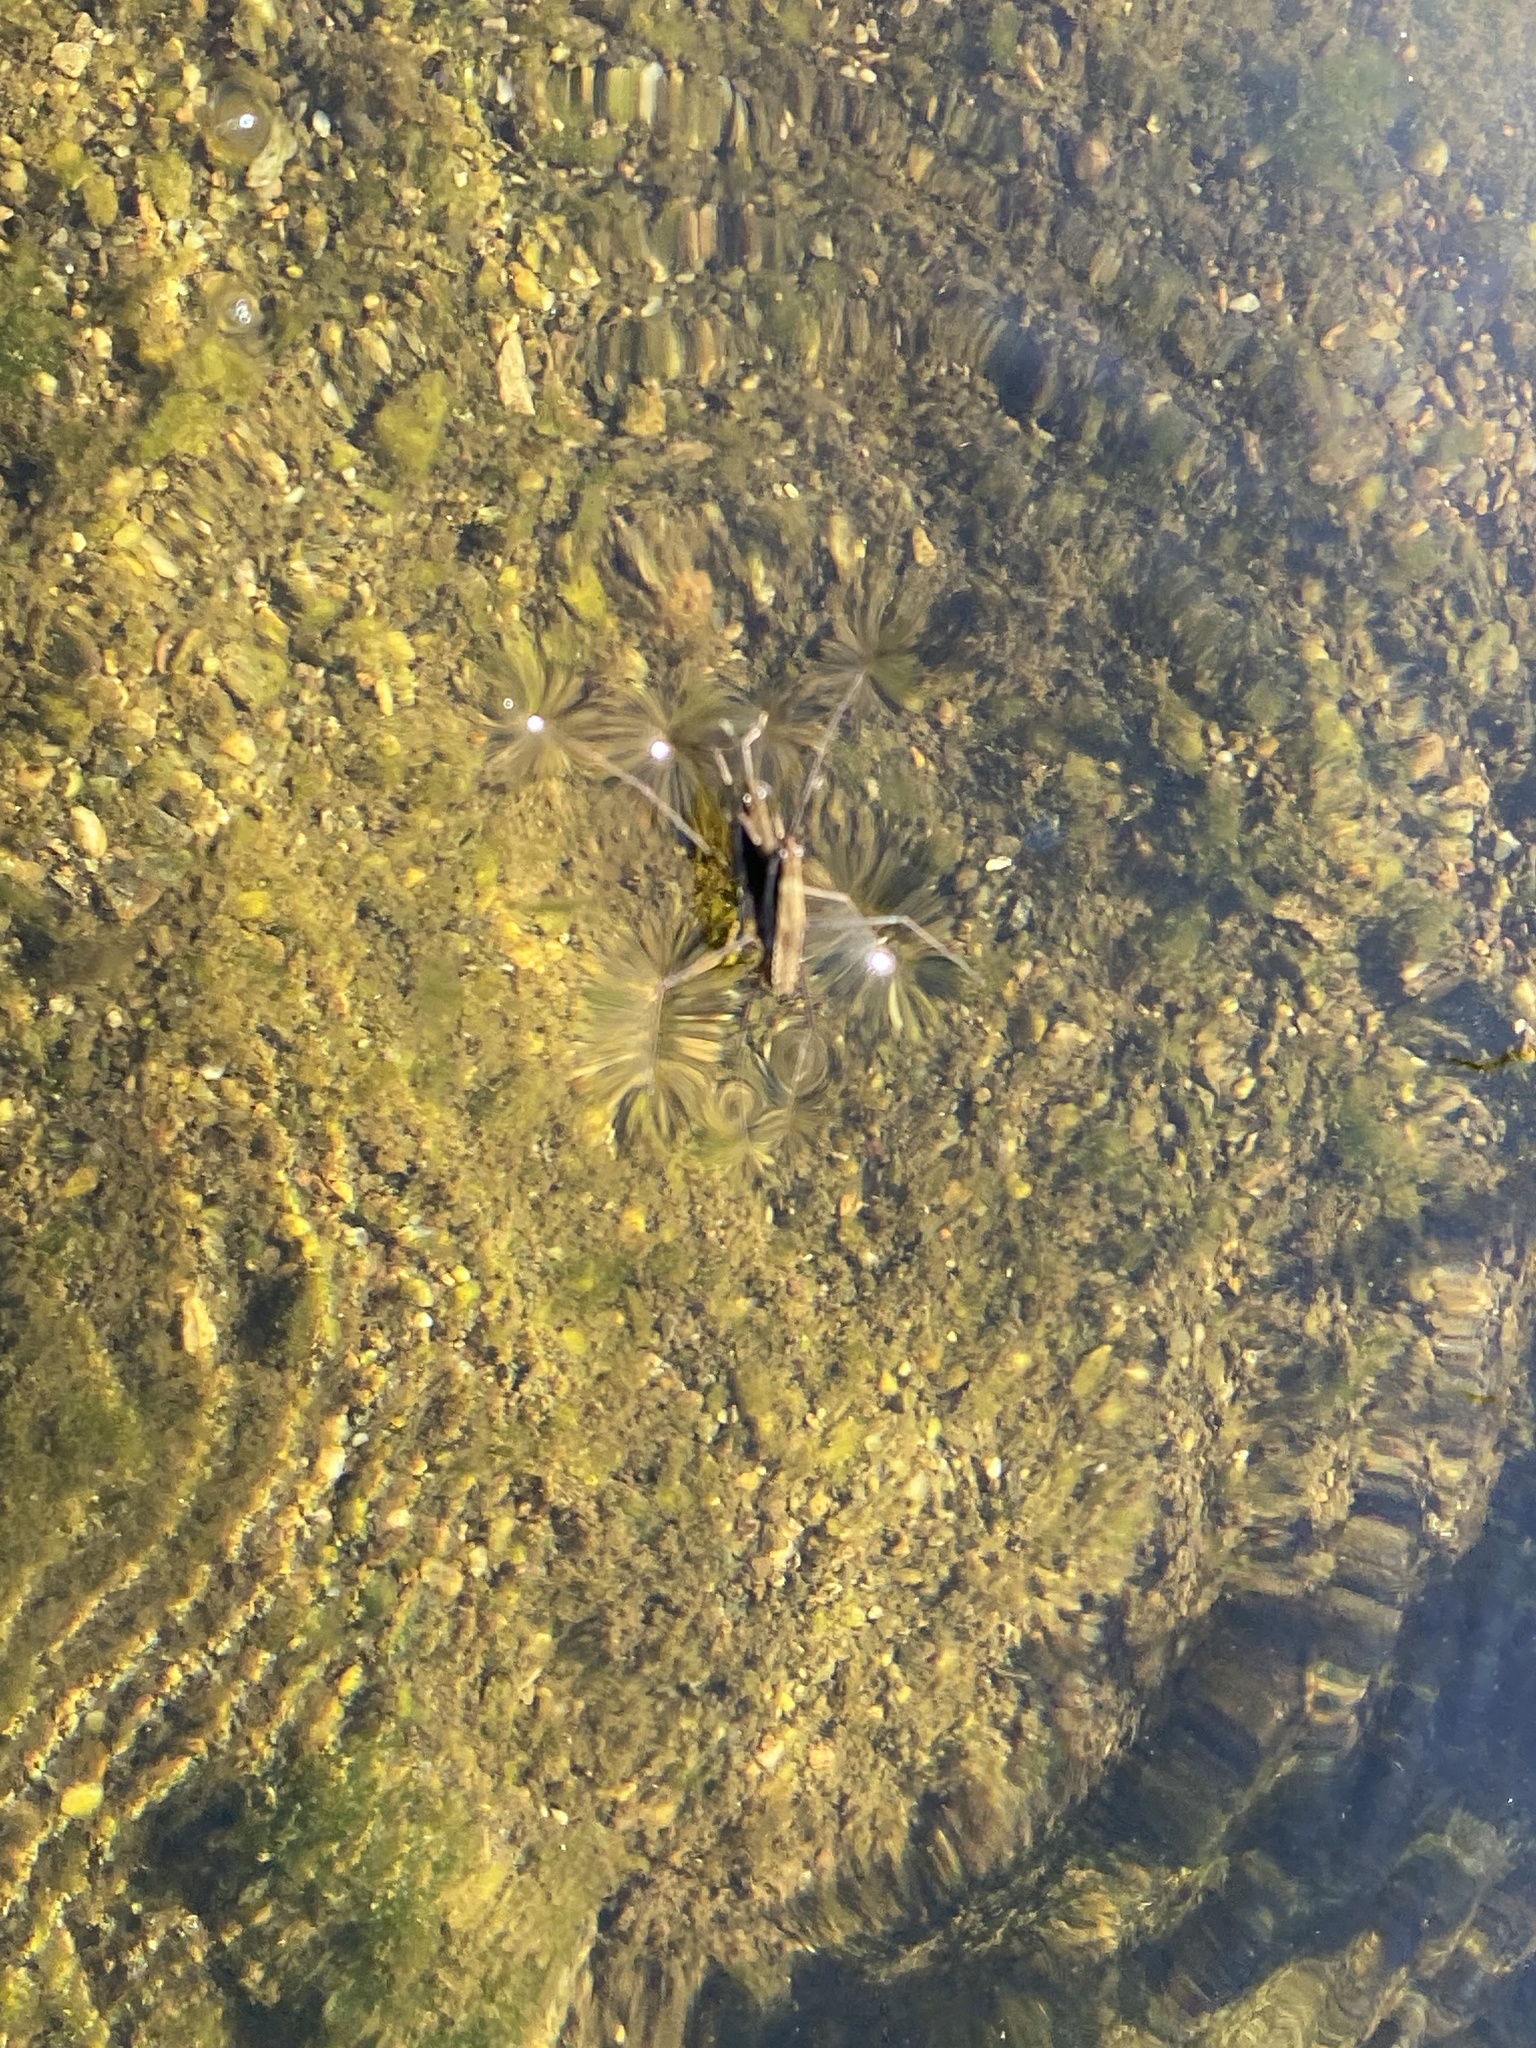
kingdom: Animalia
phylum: Arthropoda
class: Insecta
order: Hemiptera
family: Gerridae
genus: Aquarius
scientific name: Aquarius remigis
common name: Common water strider
